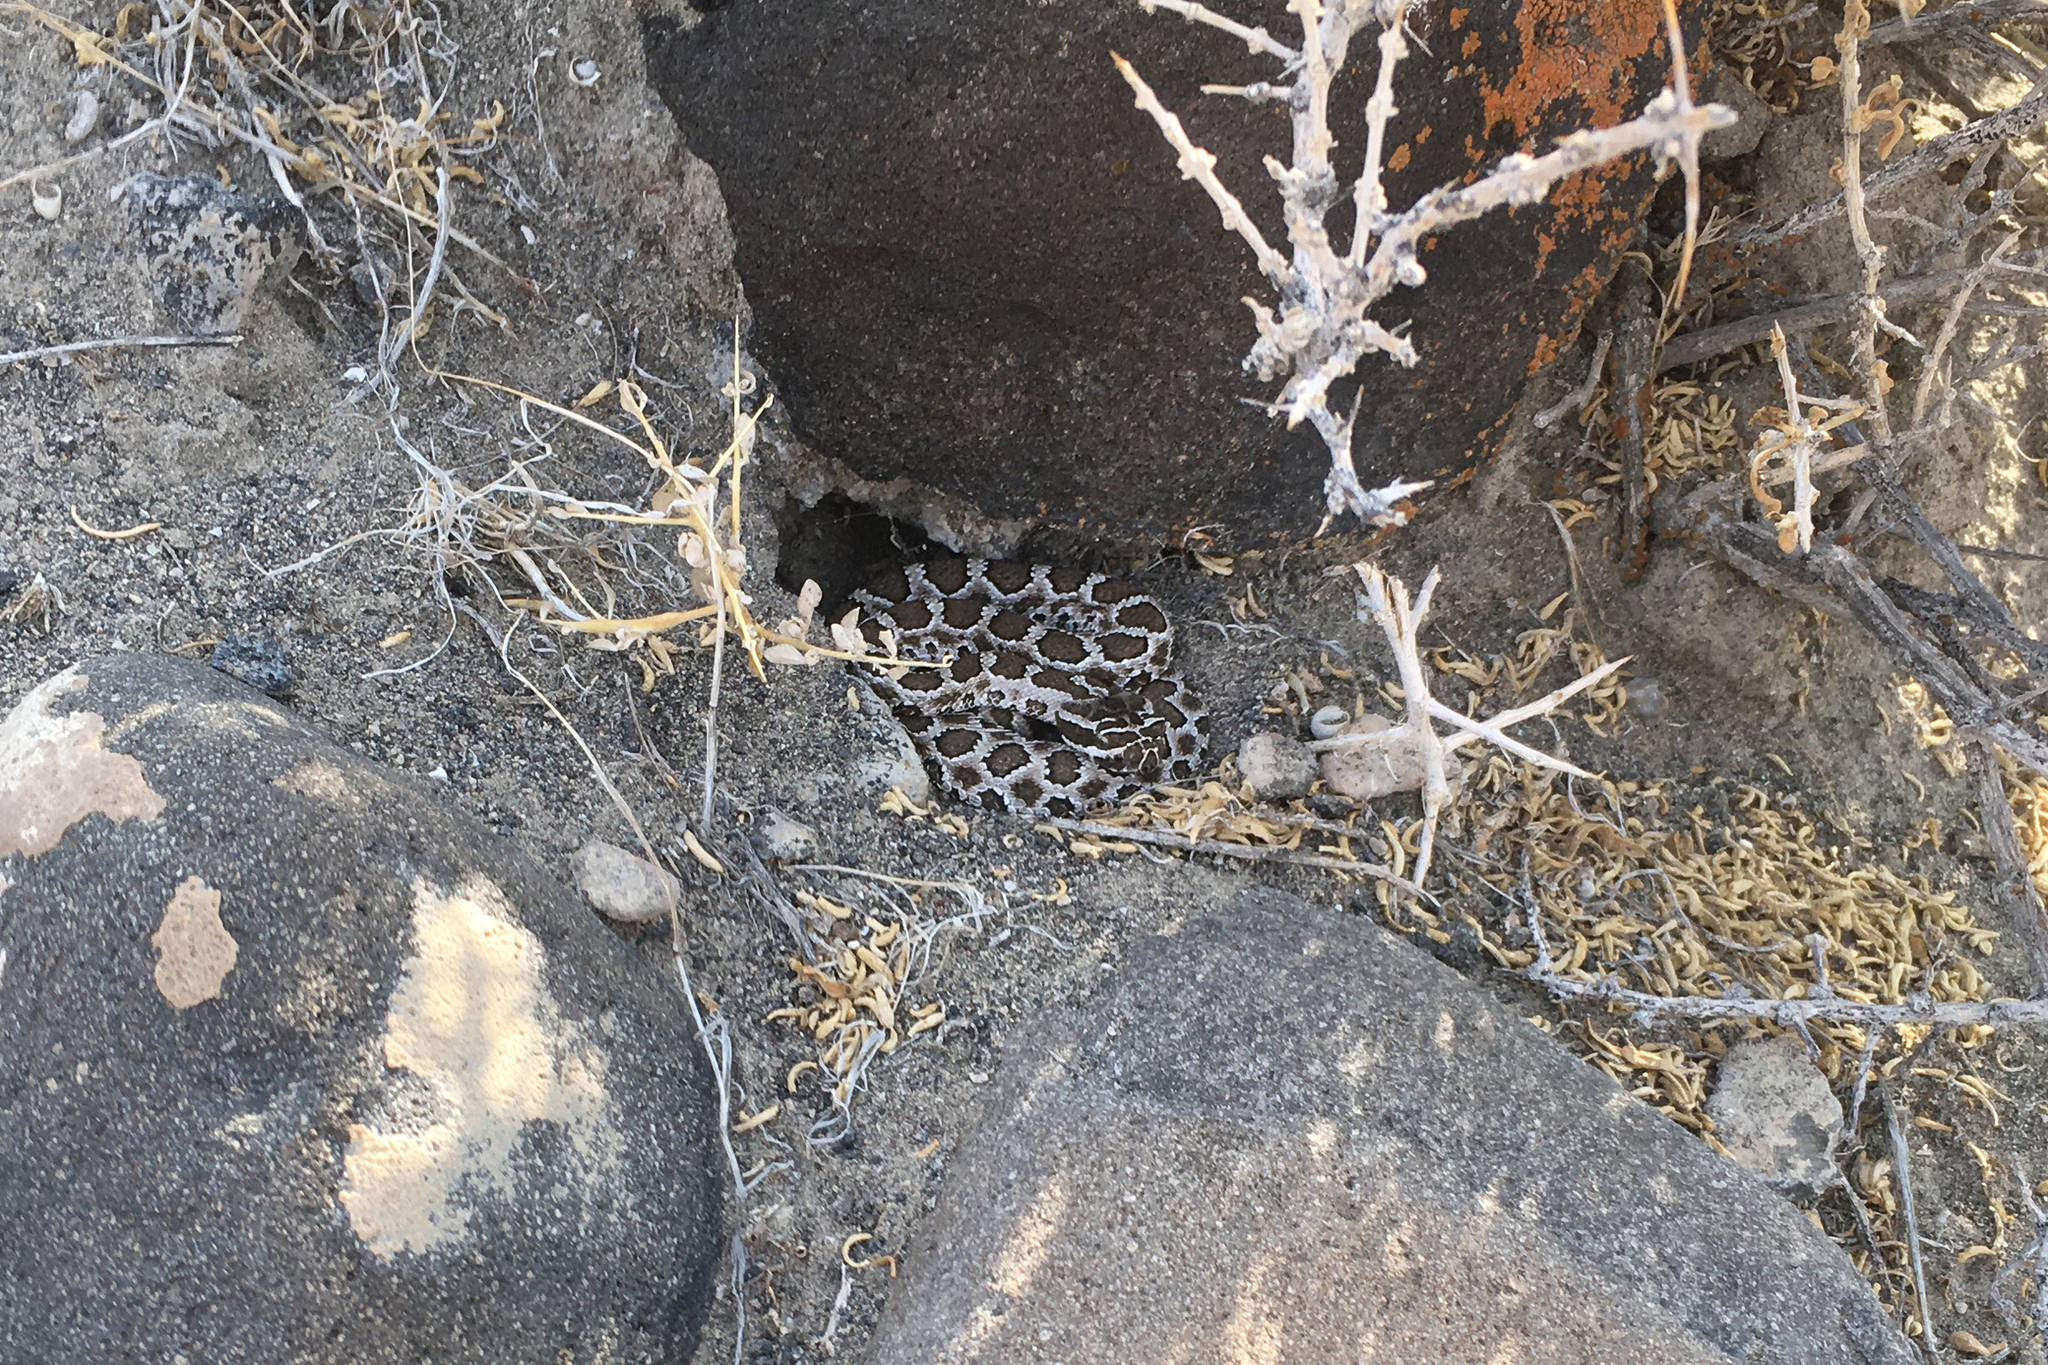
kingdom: Animalia
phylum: Chordata
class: Squamata
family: Viperidae
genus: Crotalus
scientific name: Crotalus oreganus
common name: Abyssus
